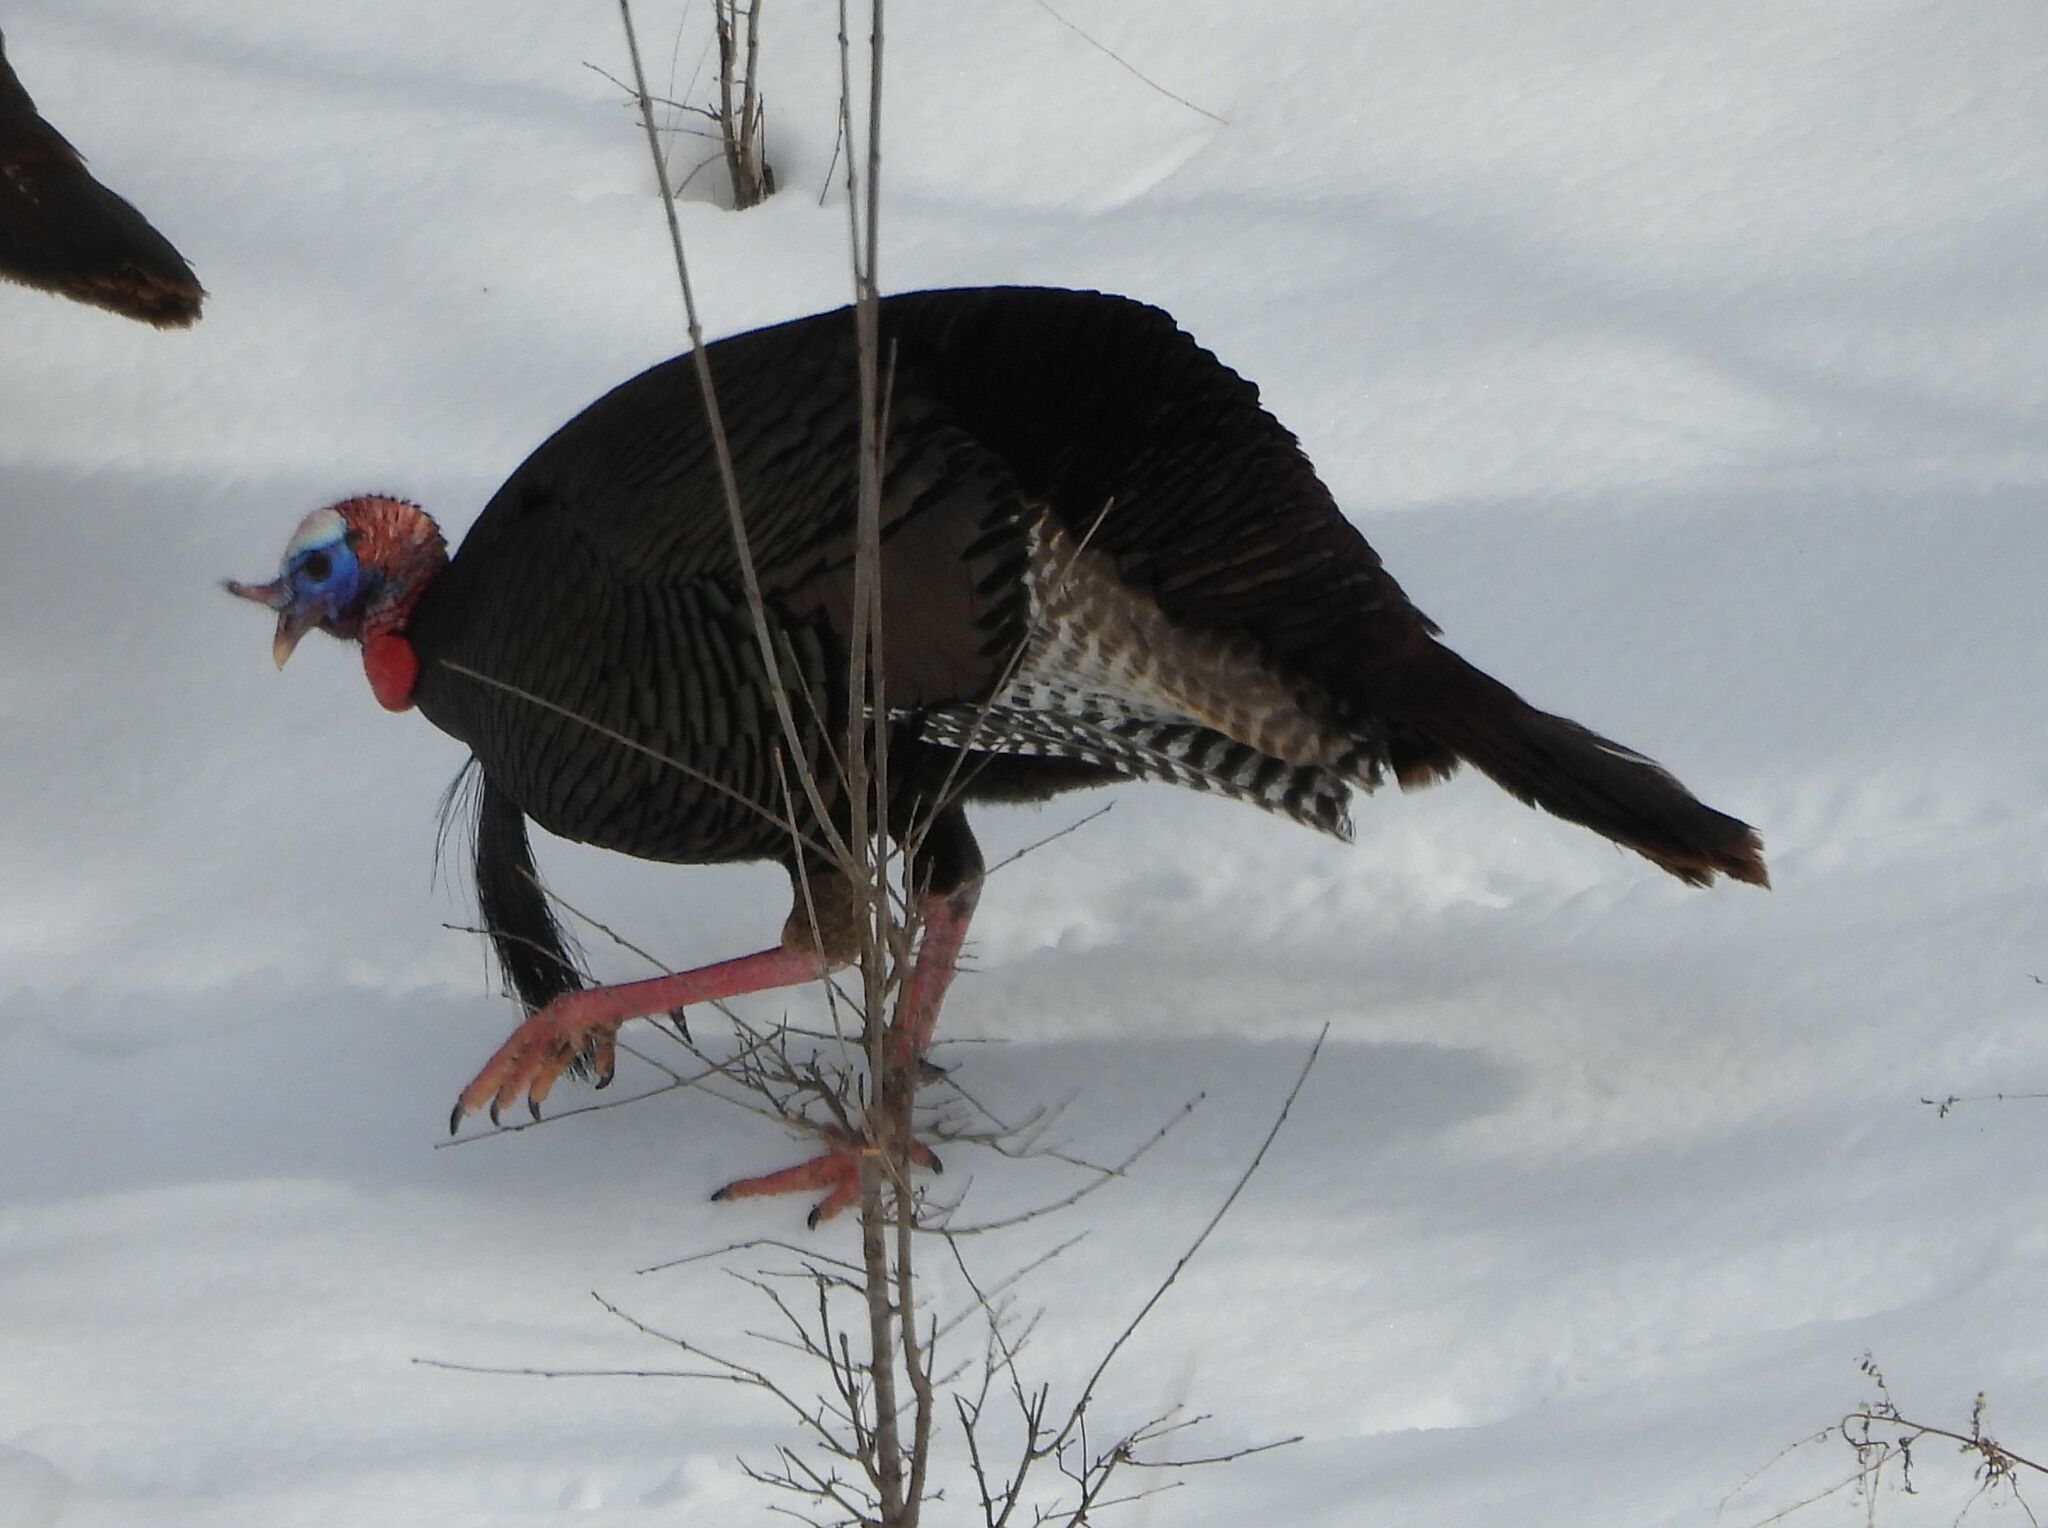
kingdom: Animalia
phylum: Chordata
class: Aves
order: Galliformes
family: Phasianidae
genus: Meleagris
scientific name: Meleagris gallopavo
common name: Wild turkey
